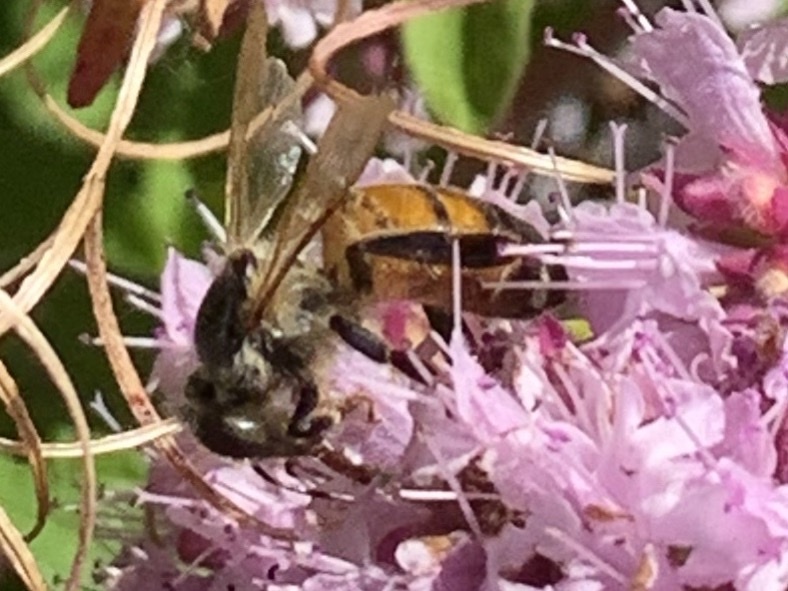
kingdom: Animalia
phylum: Arthropoda
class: Insecta
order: Hymenoptera
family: Apidae
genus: Apis
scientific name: Apis mellifera
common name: Honey bee
